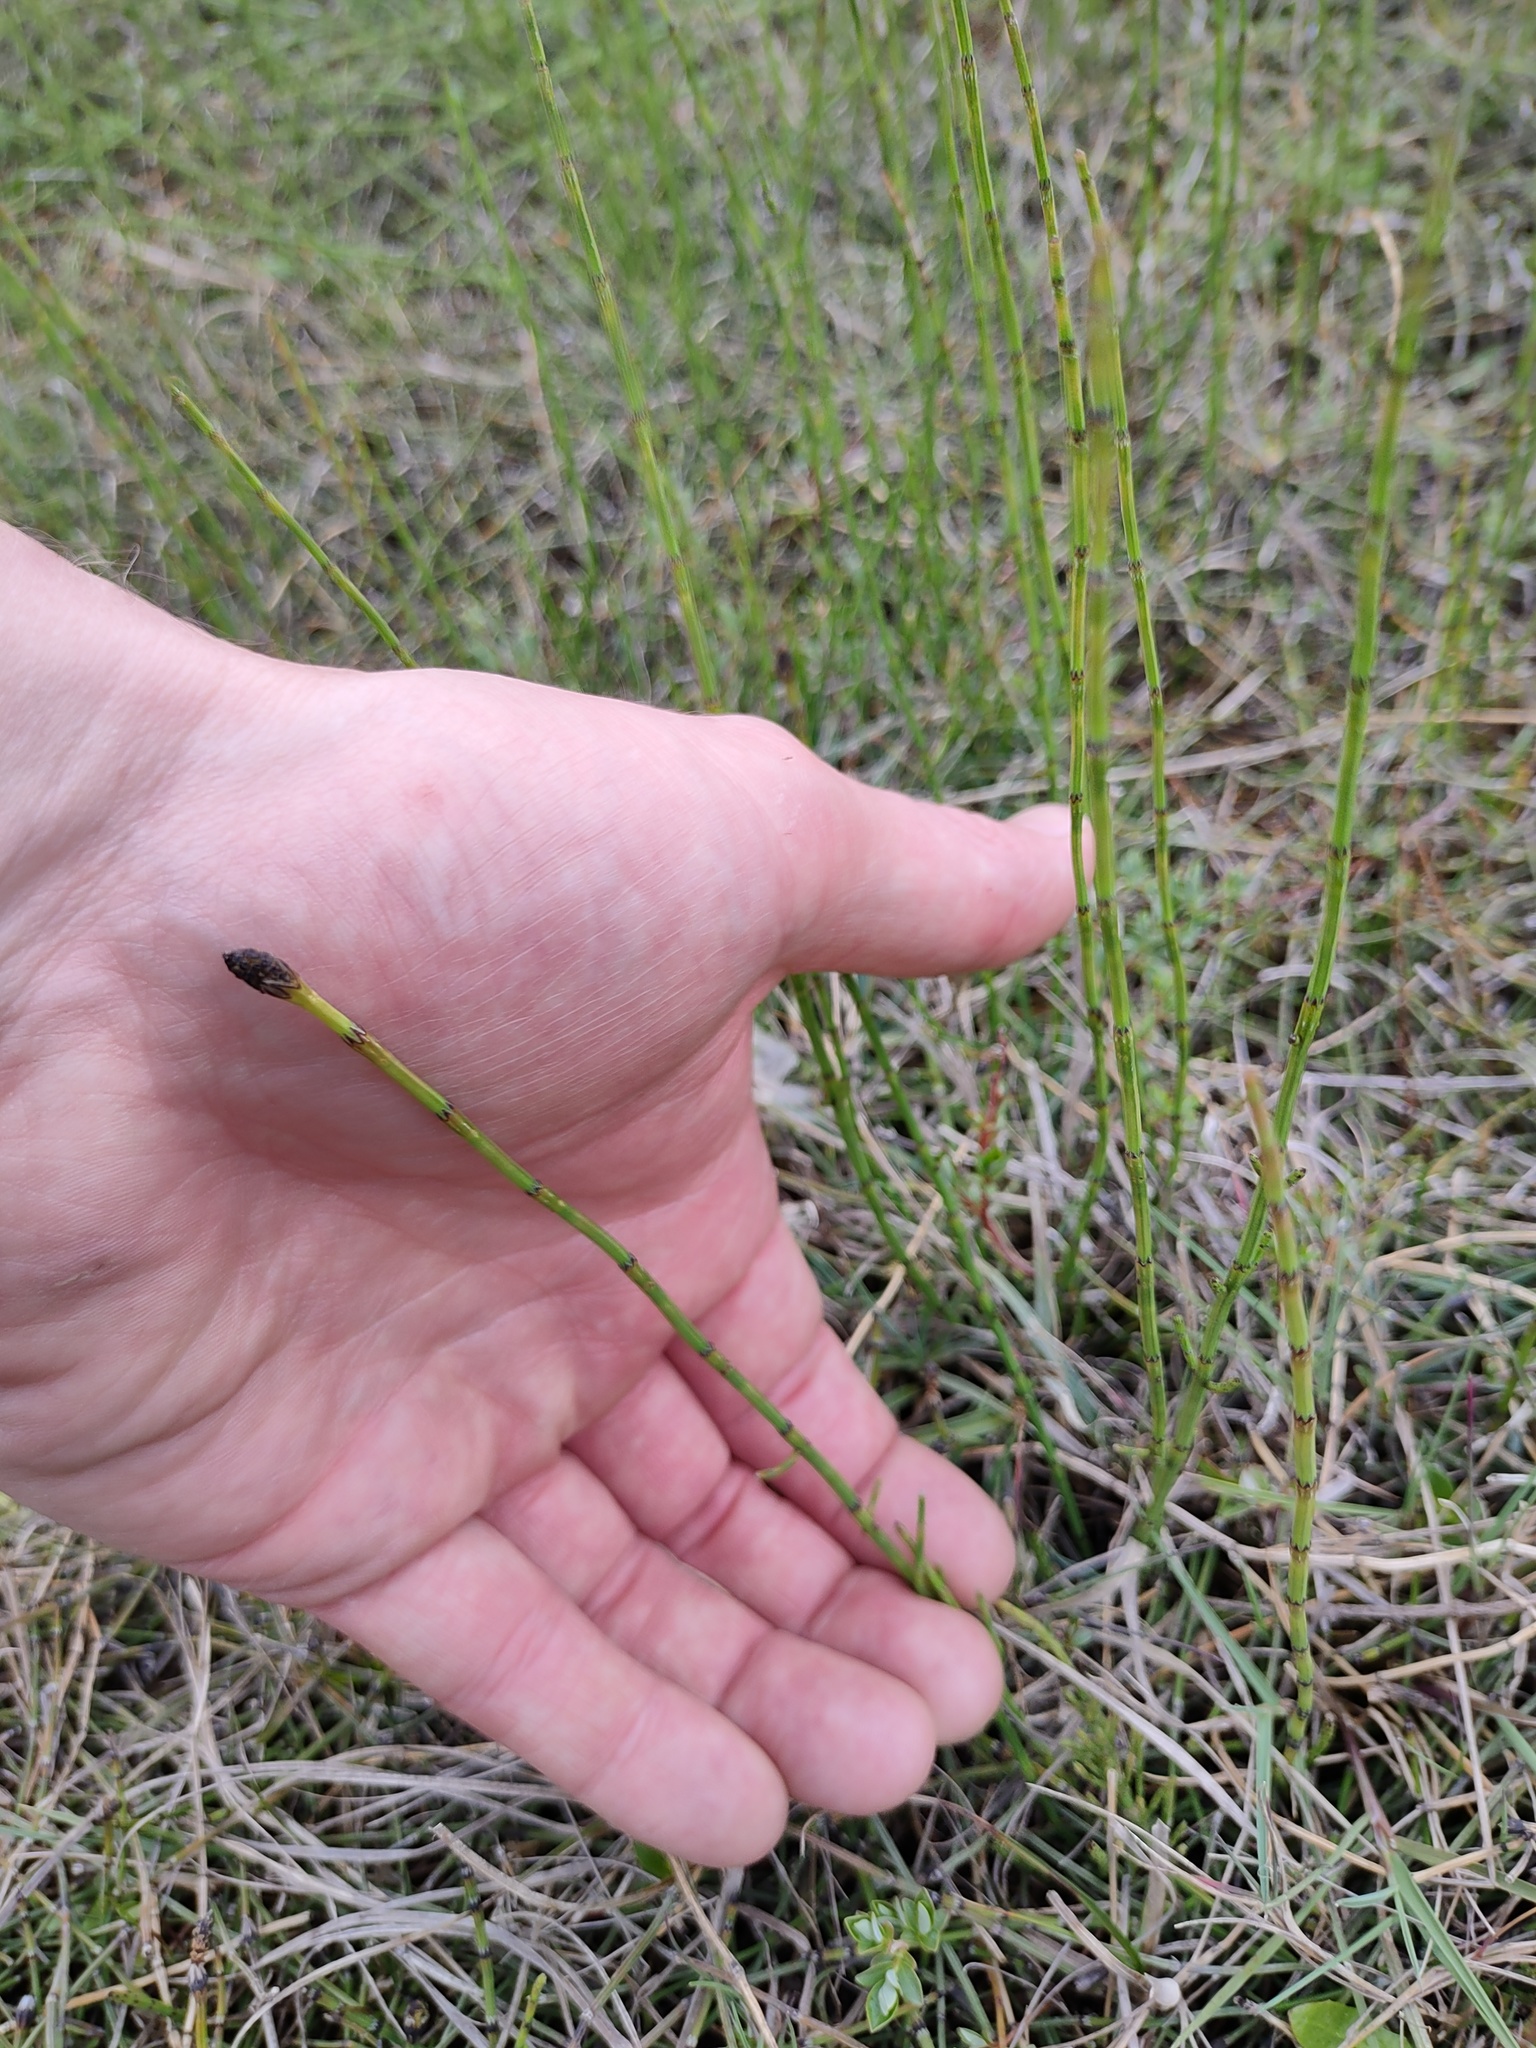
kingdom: Plantae
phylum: Tracheophyta
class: Polypodiopsida
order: Equisetales
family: Equisetaceae
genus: Equisetum
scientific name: Equisetum palustre
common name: Marsh horsetail
